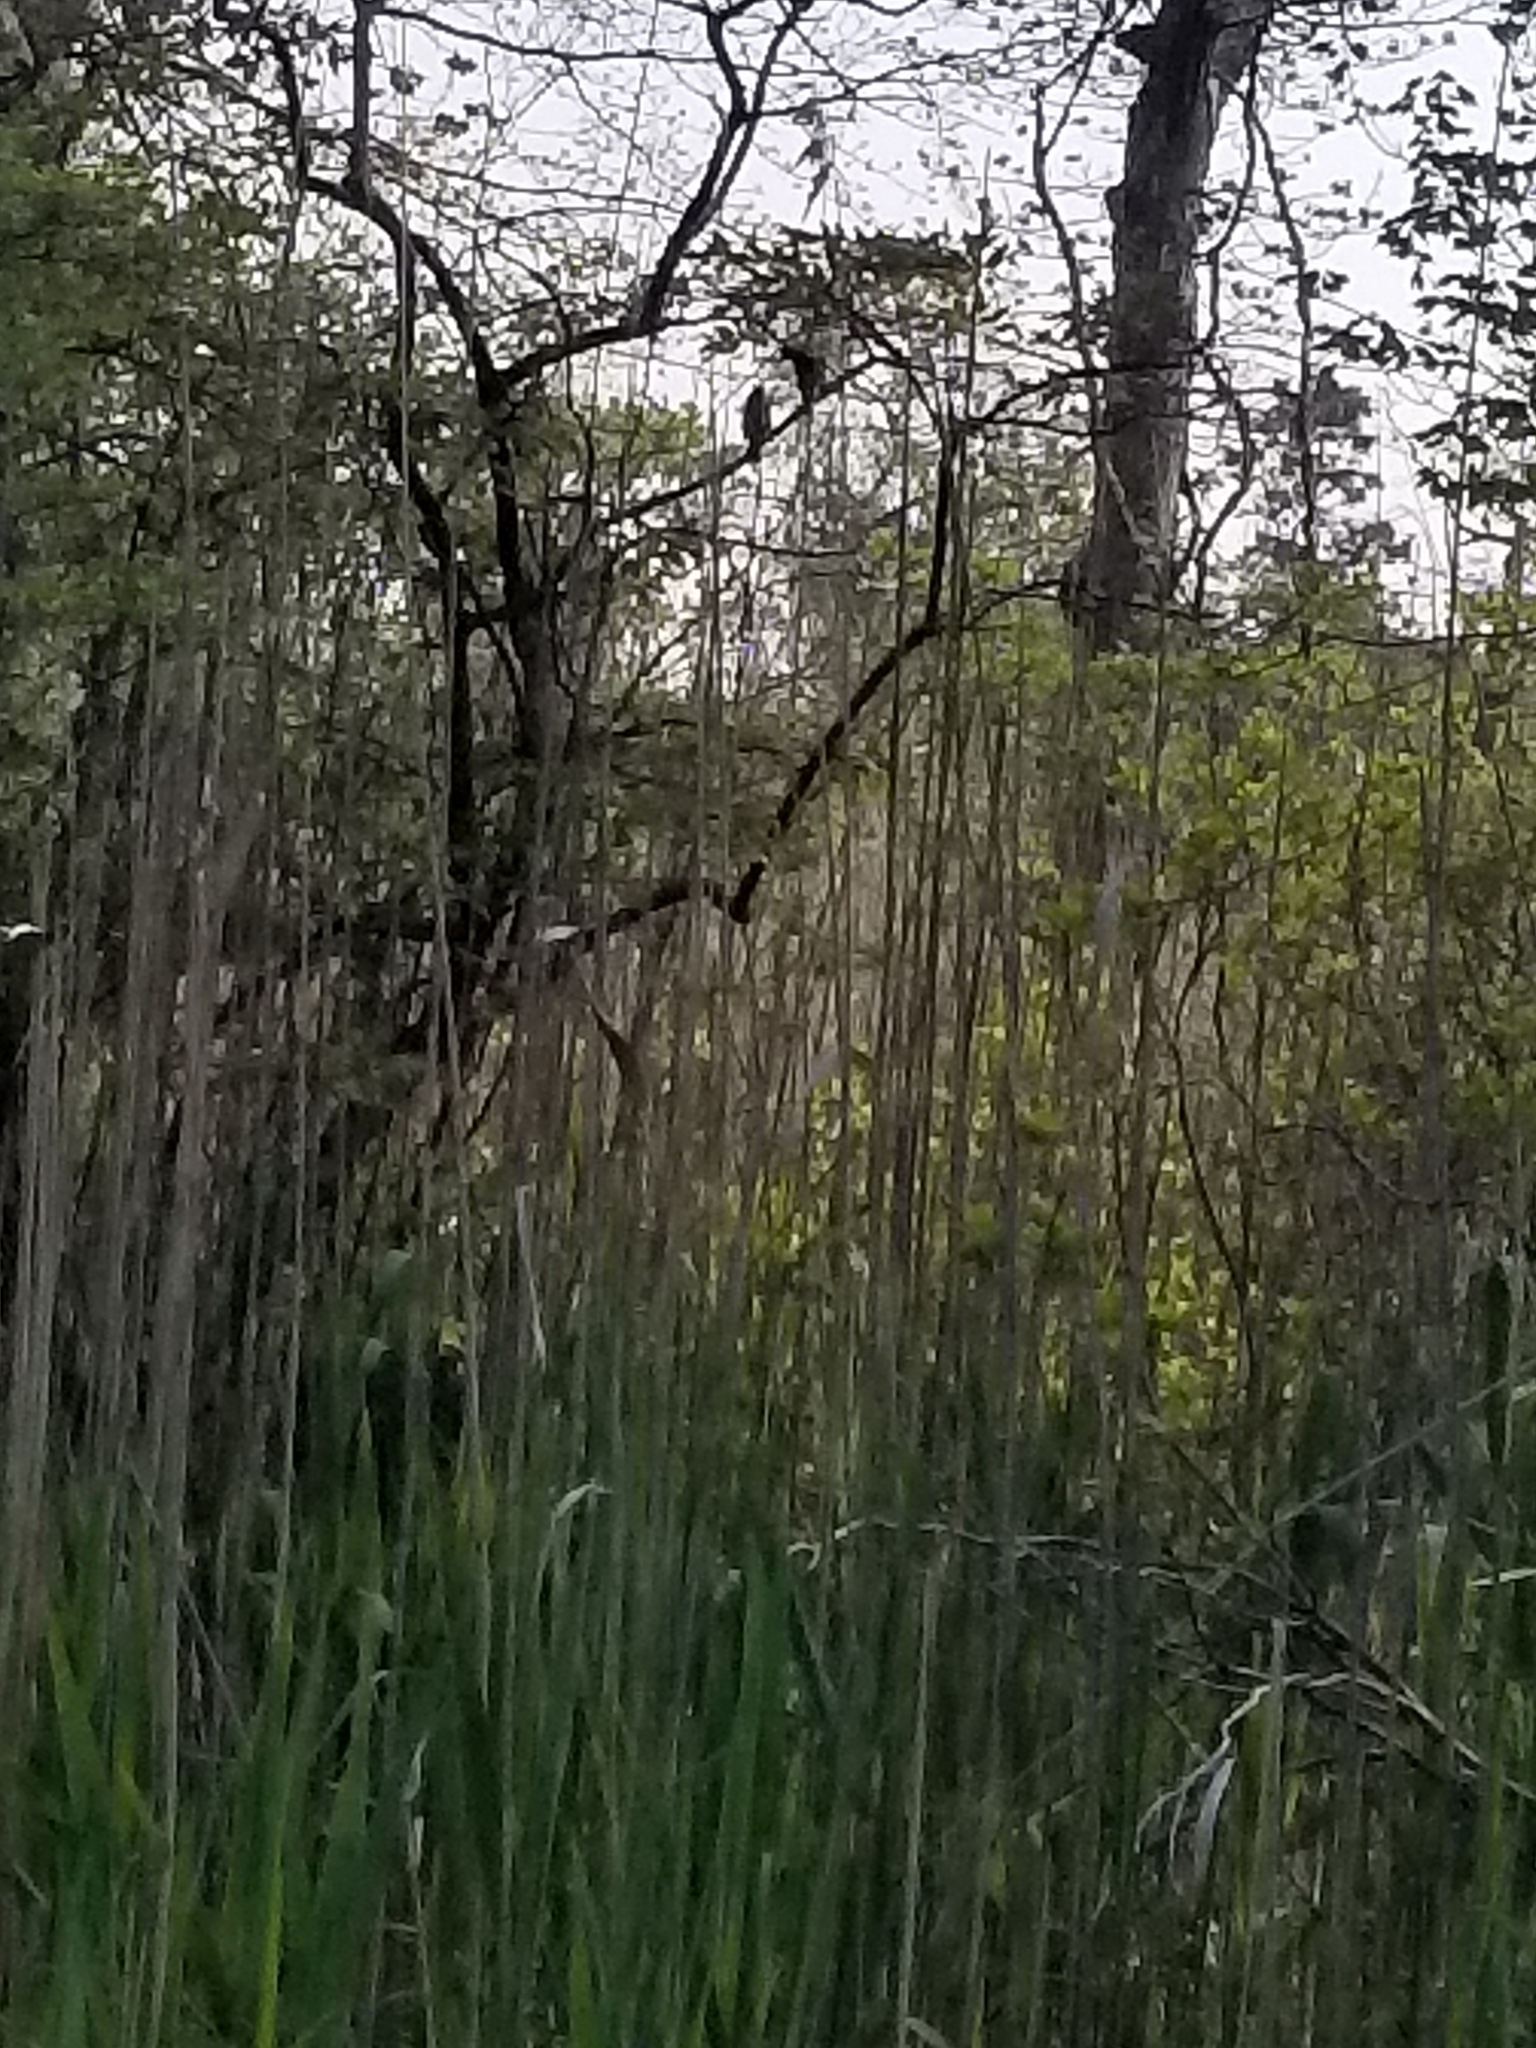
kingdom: Animalia
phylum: Chordata
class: Aves
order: Passeriformes
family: Bombycillidae
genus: Bombycilla
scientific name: Bombycilla cedrorum
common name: Cedar waxwing
